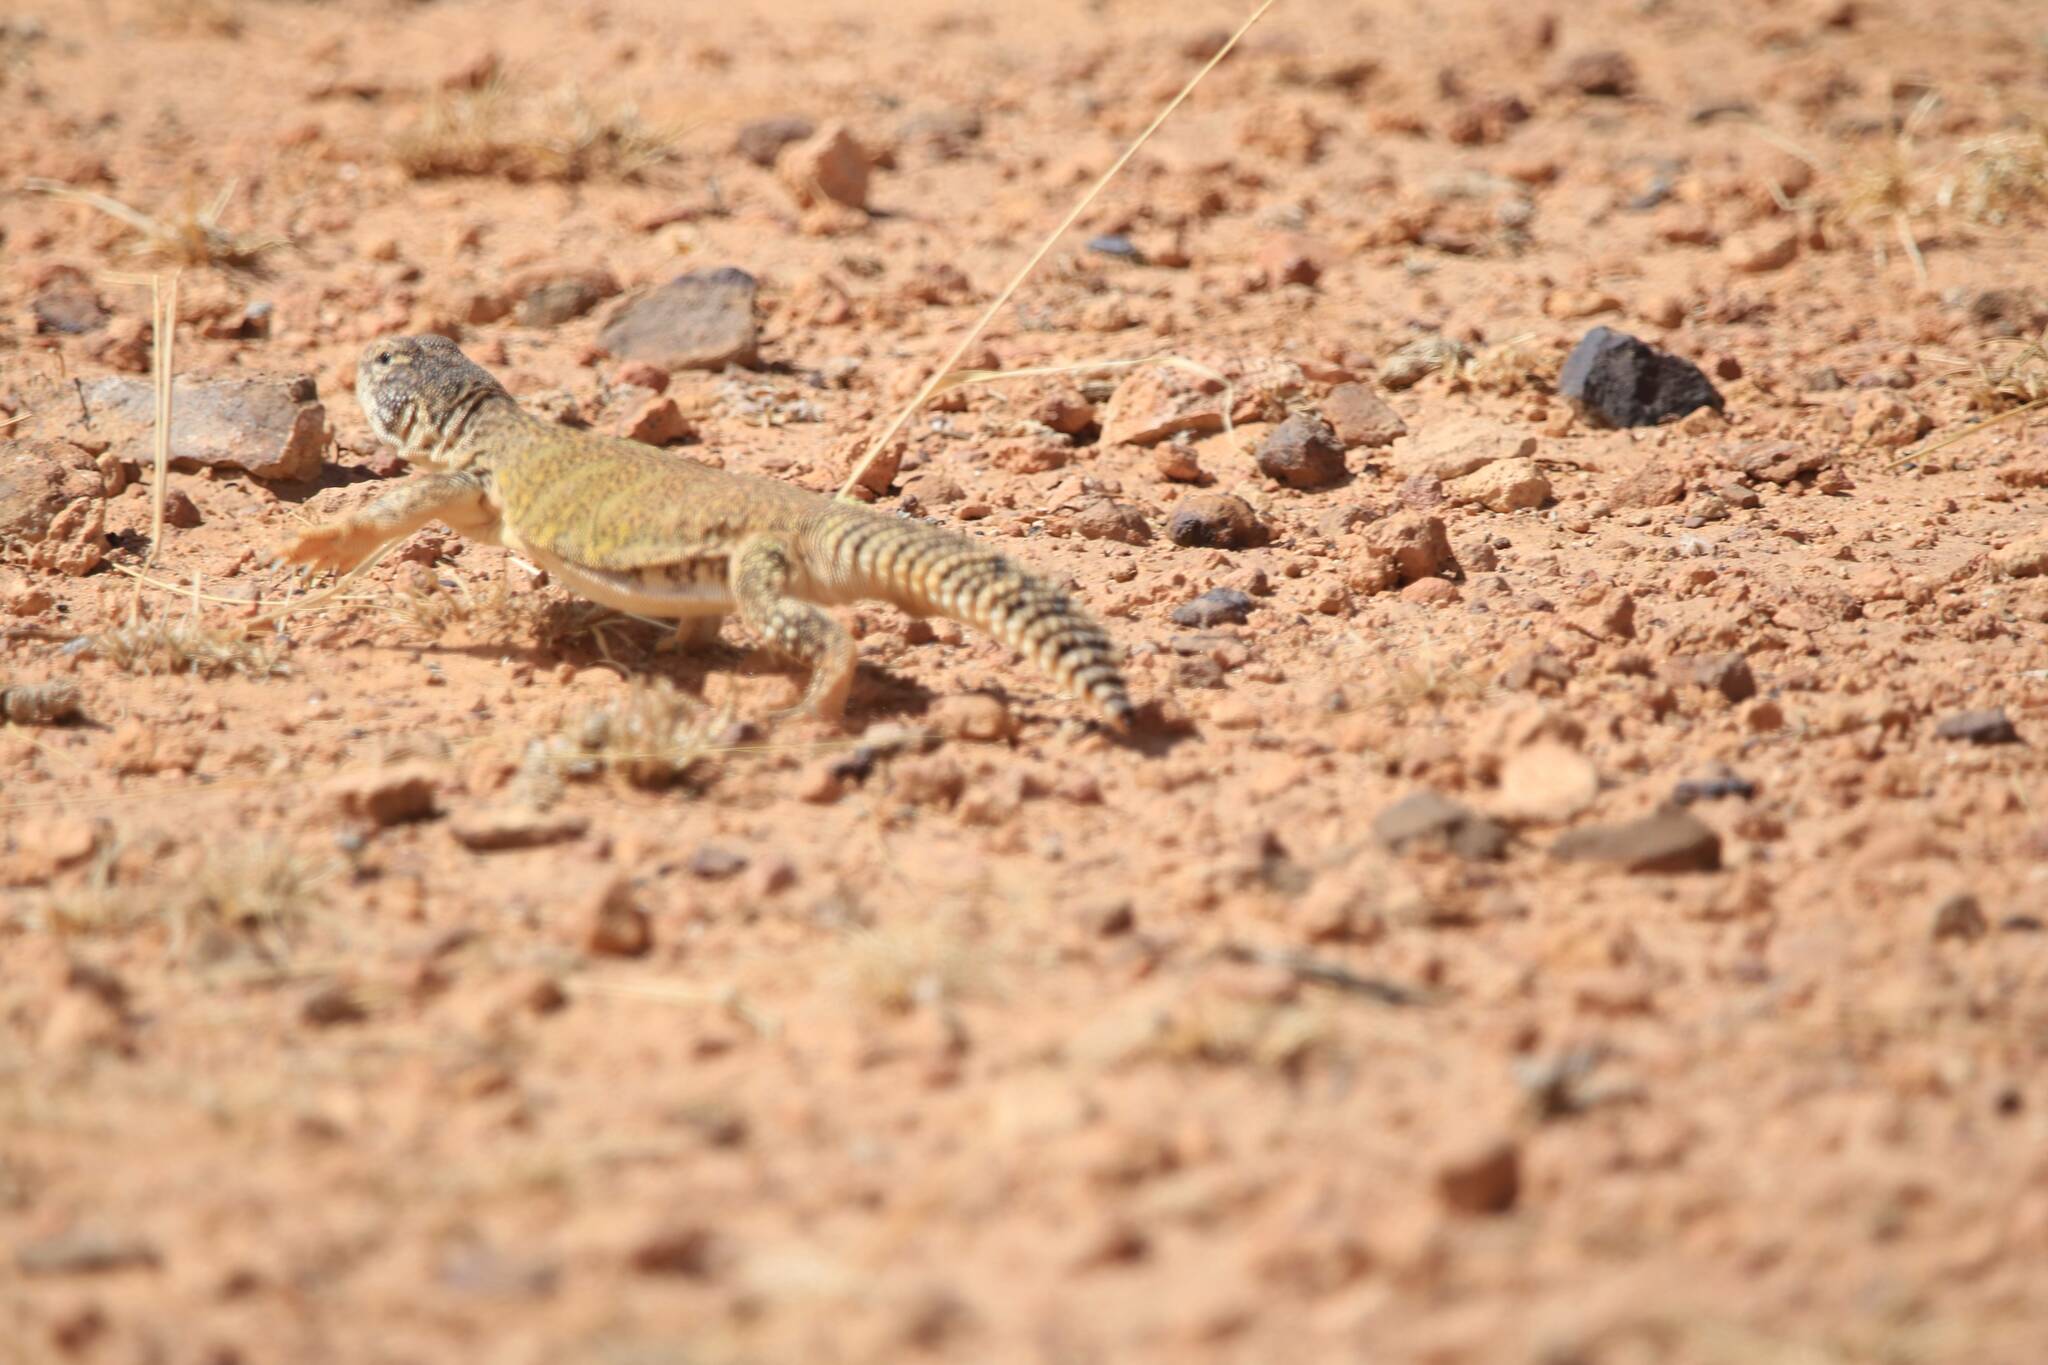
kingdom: Animalia
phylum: Chordata
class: Squamata
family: Agamidae
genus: Uromastyx
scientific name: Uromastyx nigriventris
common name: Moroccan spiny-tailed lizard
